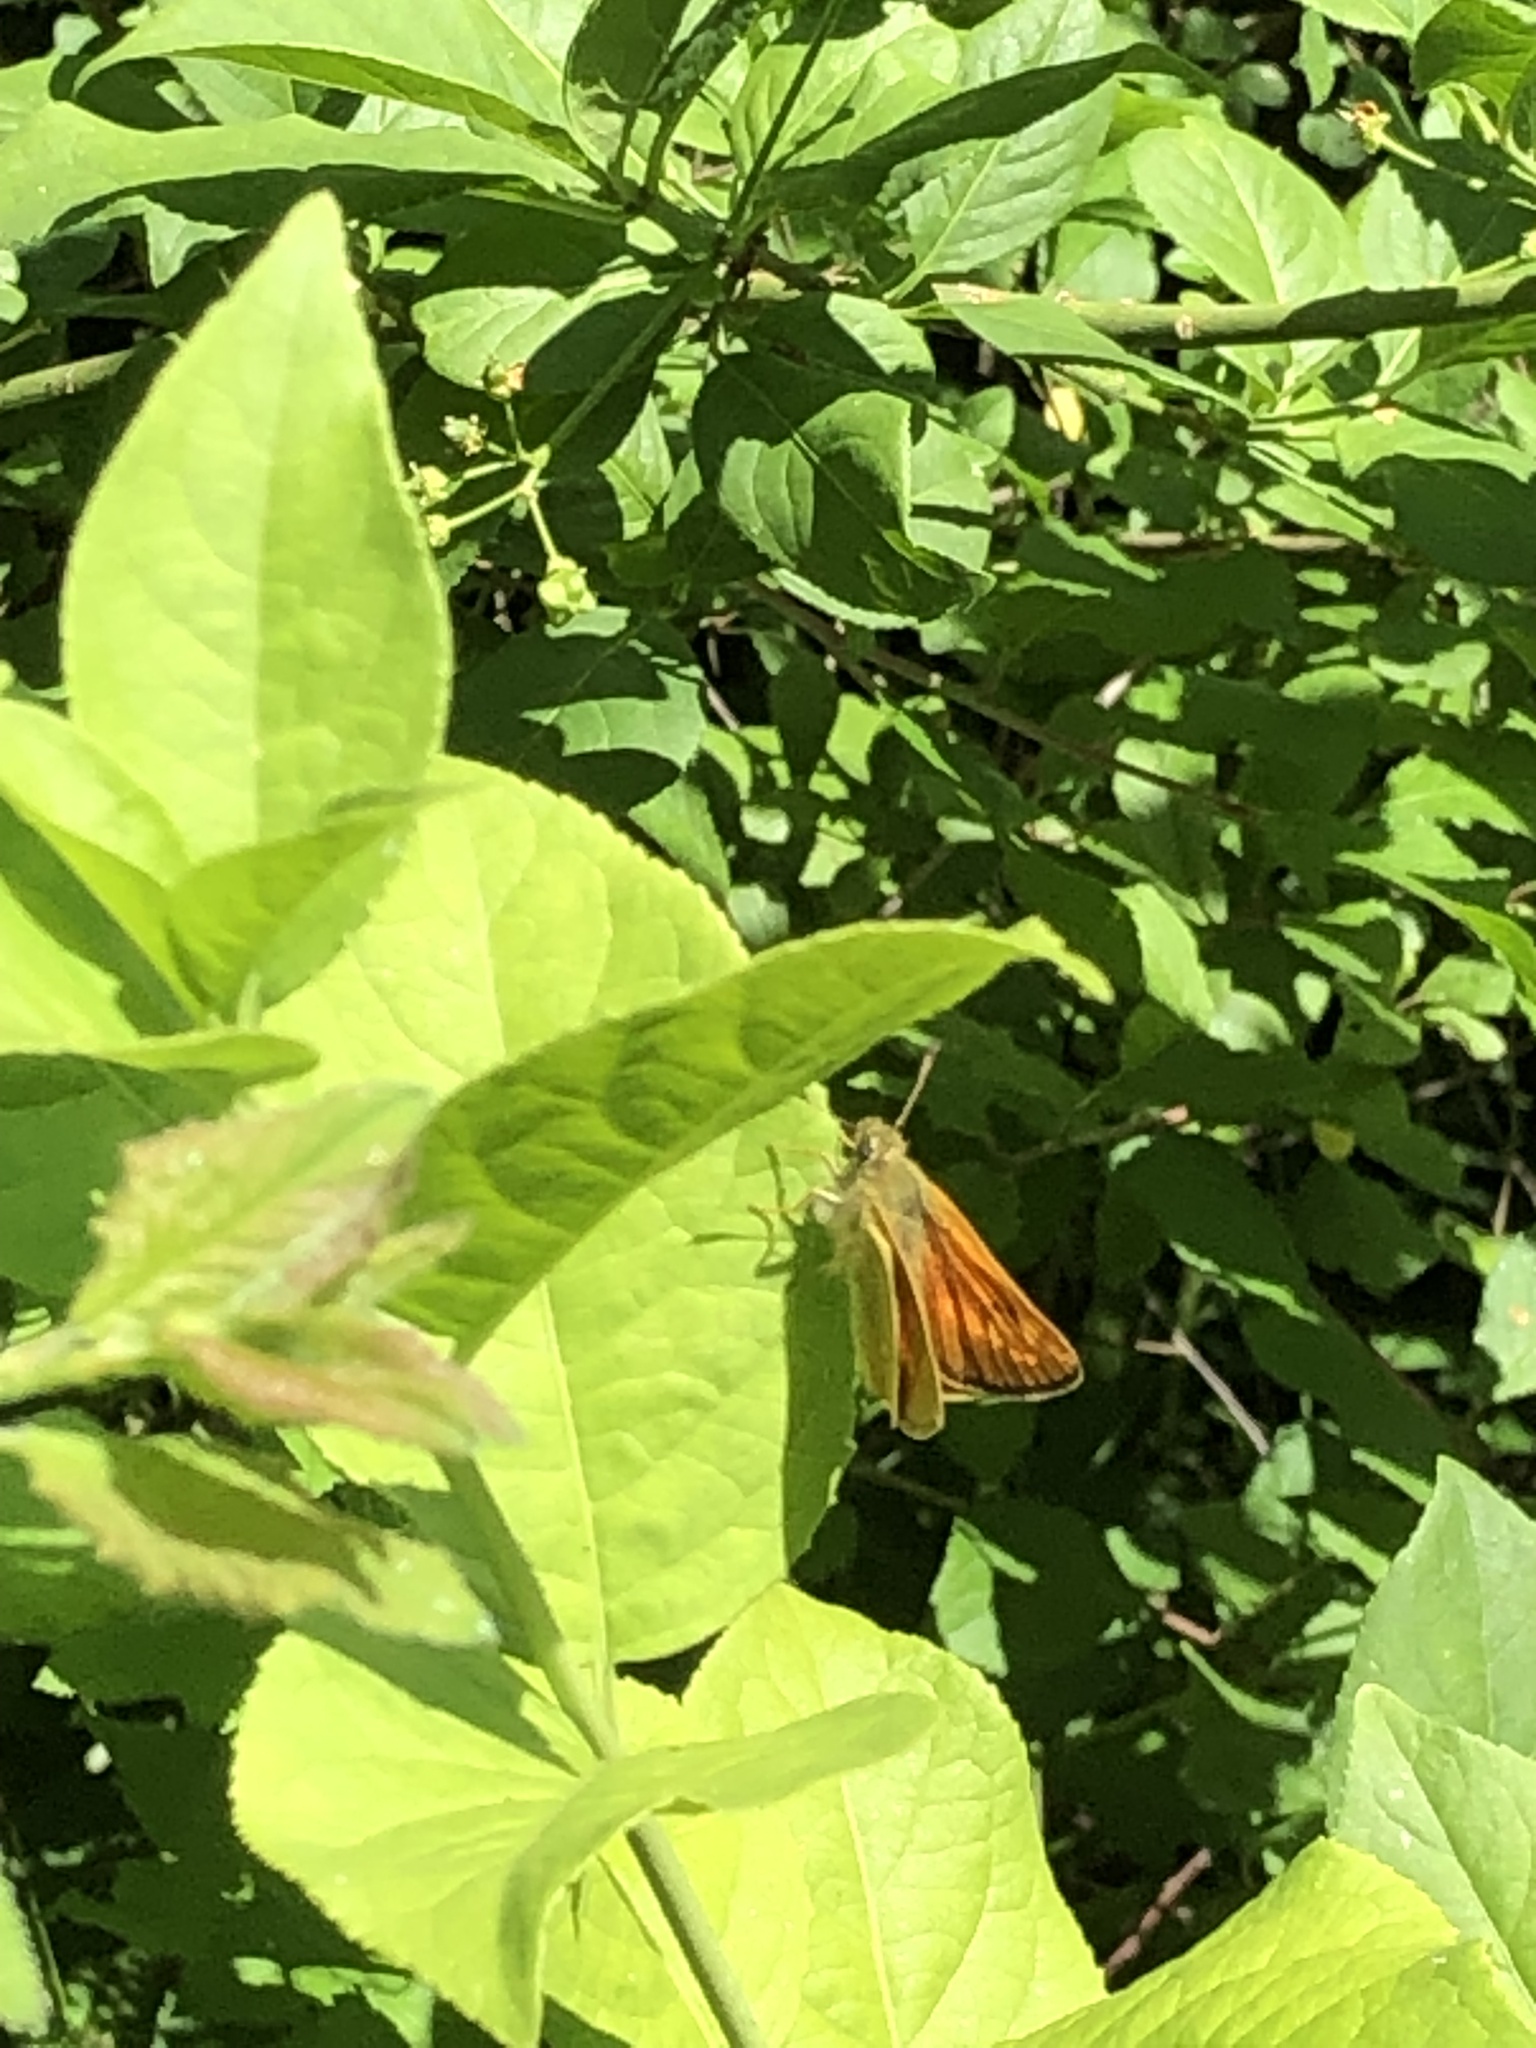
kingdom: Animalia
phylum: Arthropoda
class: Insecta
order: Lepidoptera
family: Hesperiidae
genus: Ochlodes
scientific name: Ochlodes venata
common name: Large skipper
